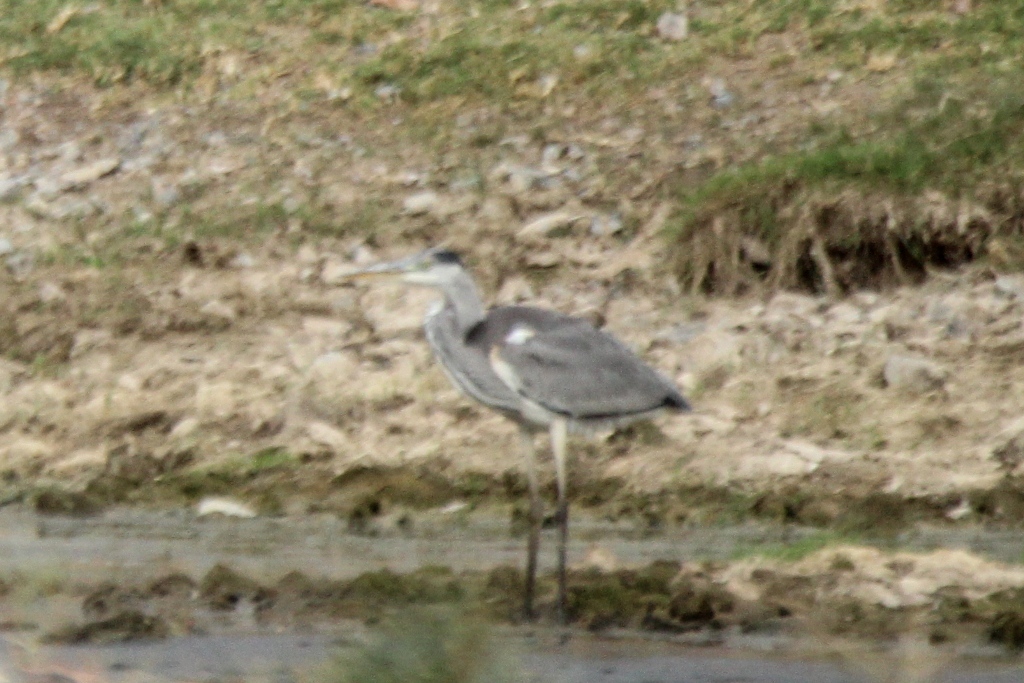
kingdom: Animalia
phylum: Chordata
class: Aves
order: Pelecaniformes
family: Ardeidae
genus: Ardea
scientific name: Ardea cinerea
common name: Grey heron
